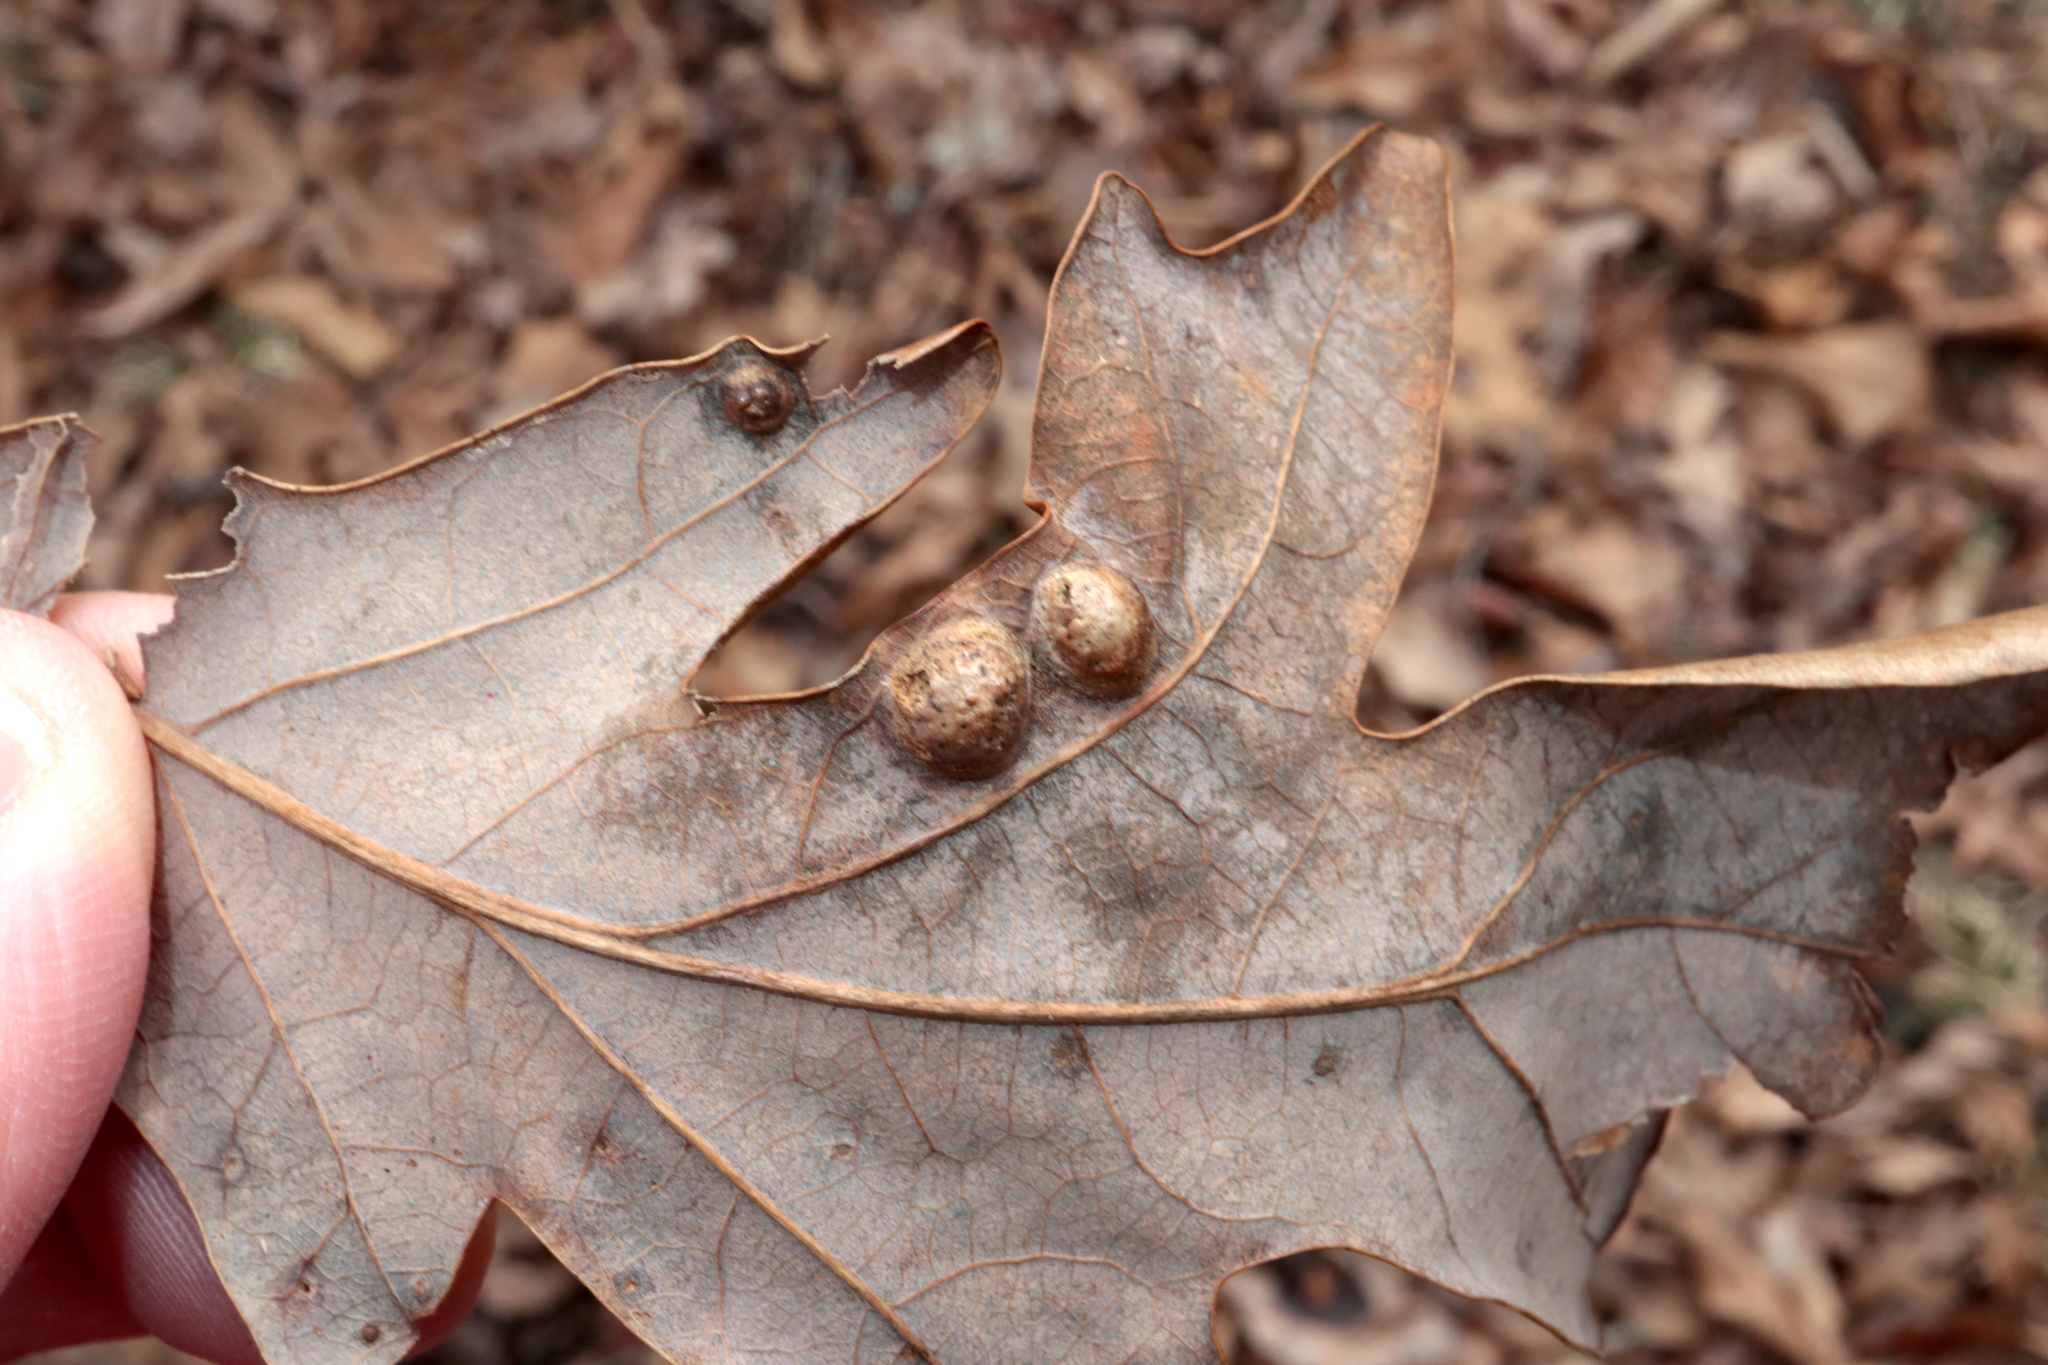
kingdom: Animalia
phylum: Arthropoda
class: Insecta
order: Hymenoptera
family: Cynipidae
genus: Callirhytis
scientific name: Callirhytis
